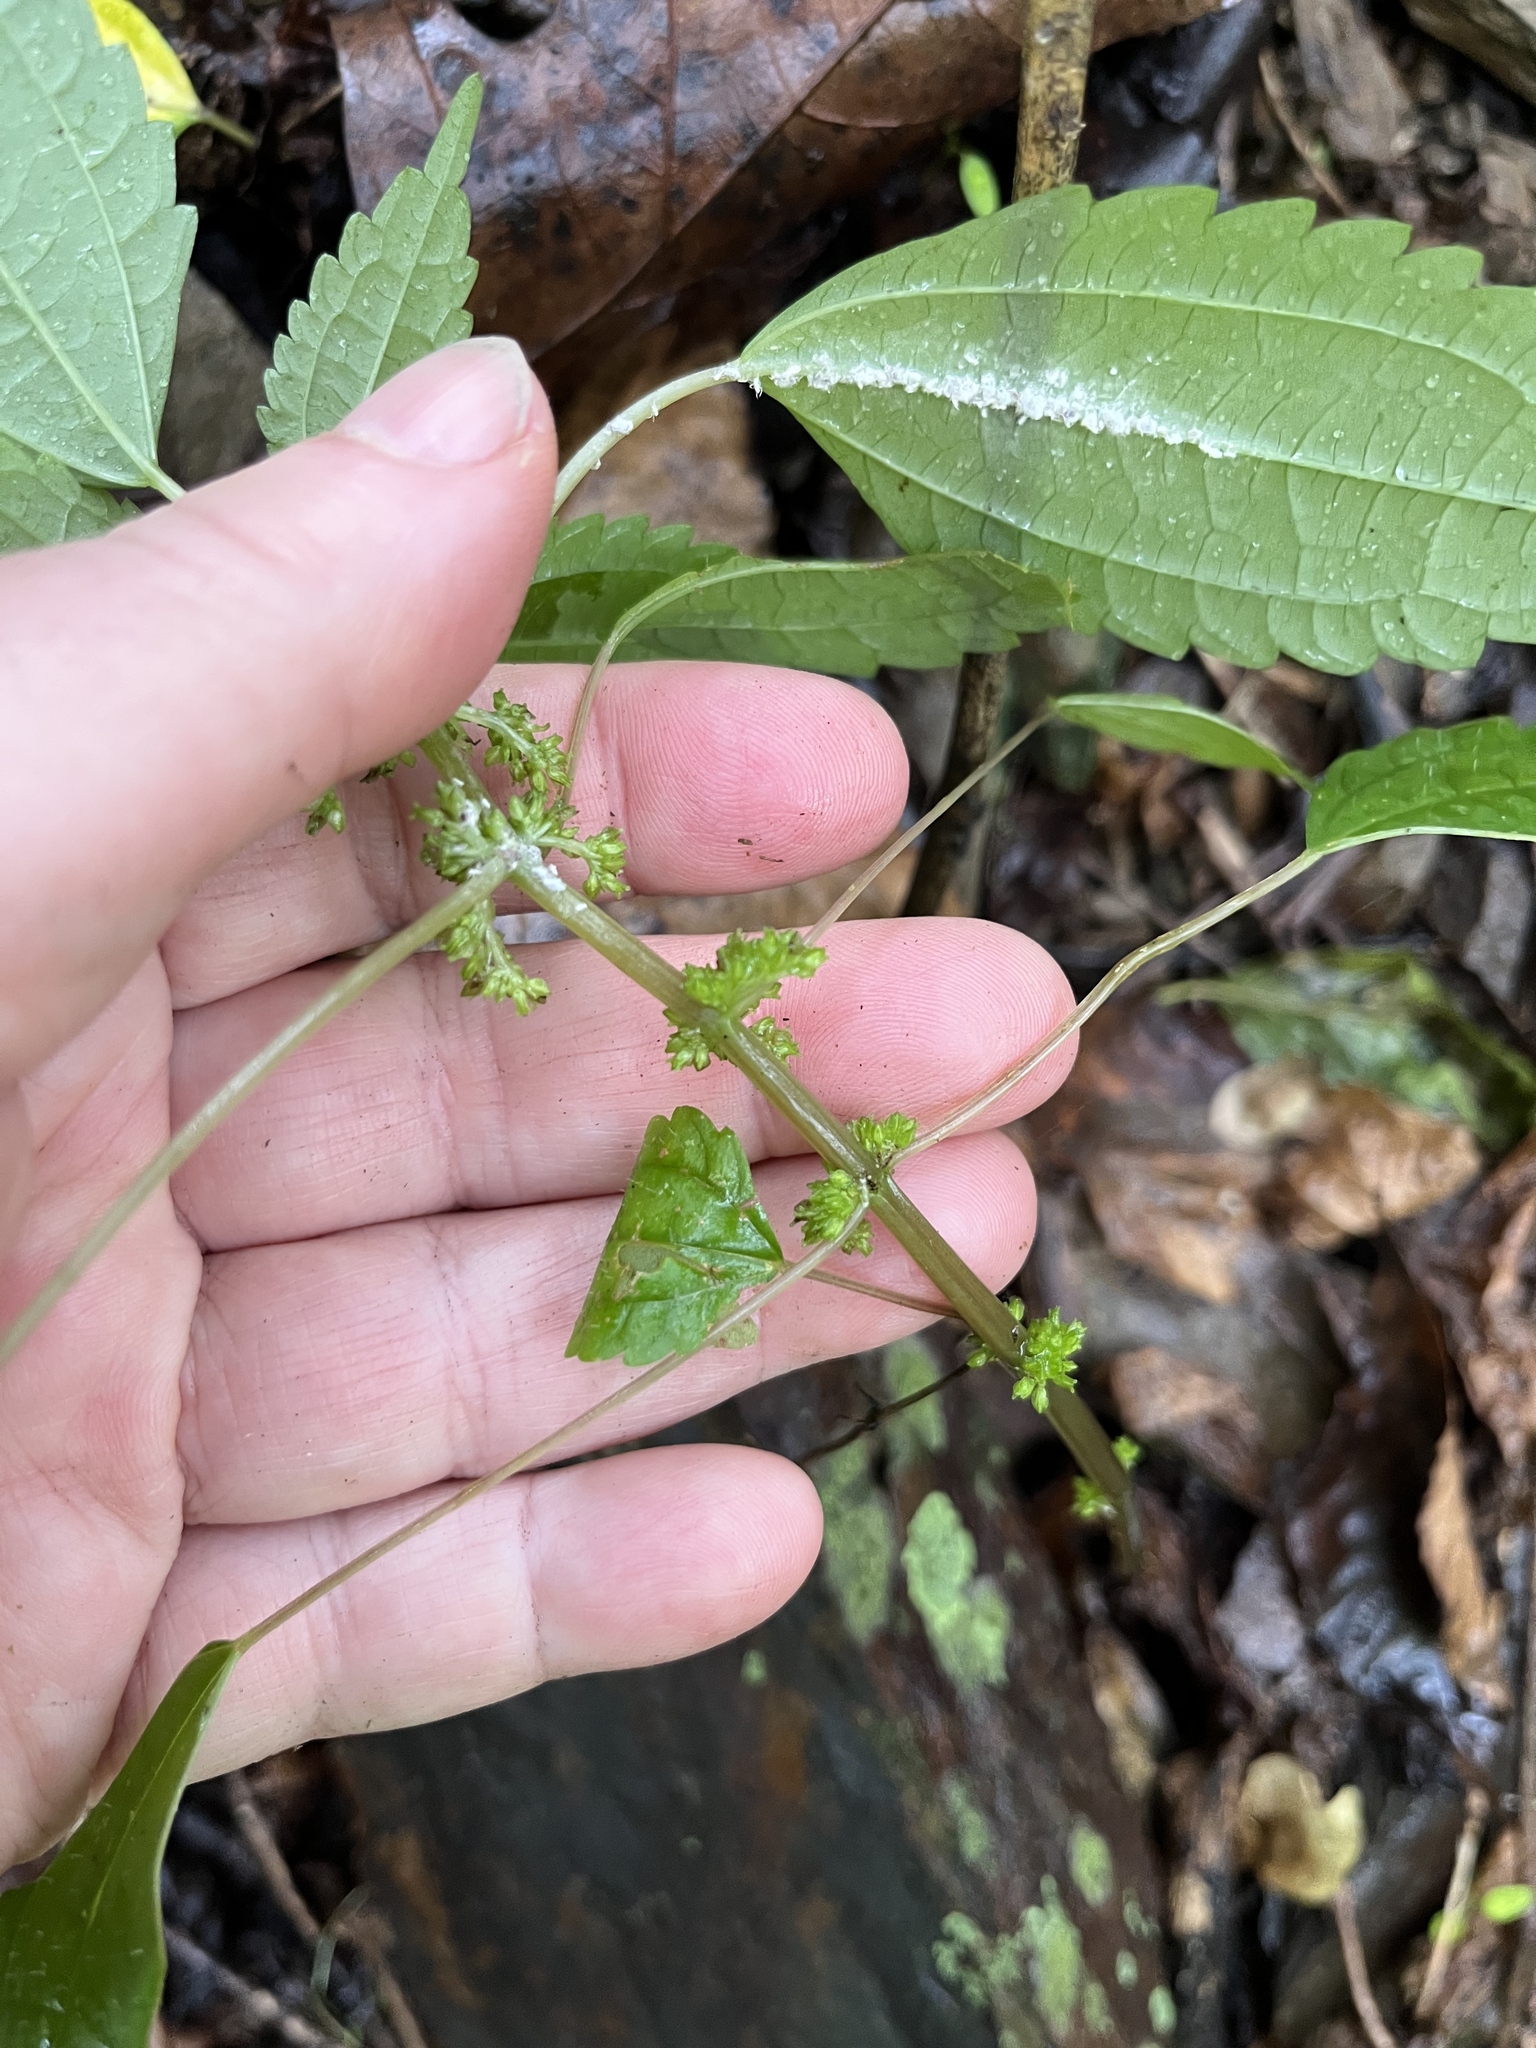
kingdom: Plantae
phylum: Tracheophyta
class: Magnoliopsida
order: Rosales
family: Urticaceae
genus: Pilea
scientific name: Pilea pumila
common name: Clearweed
